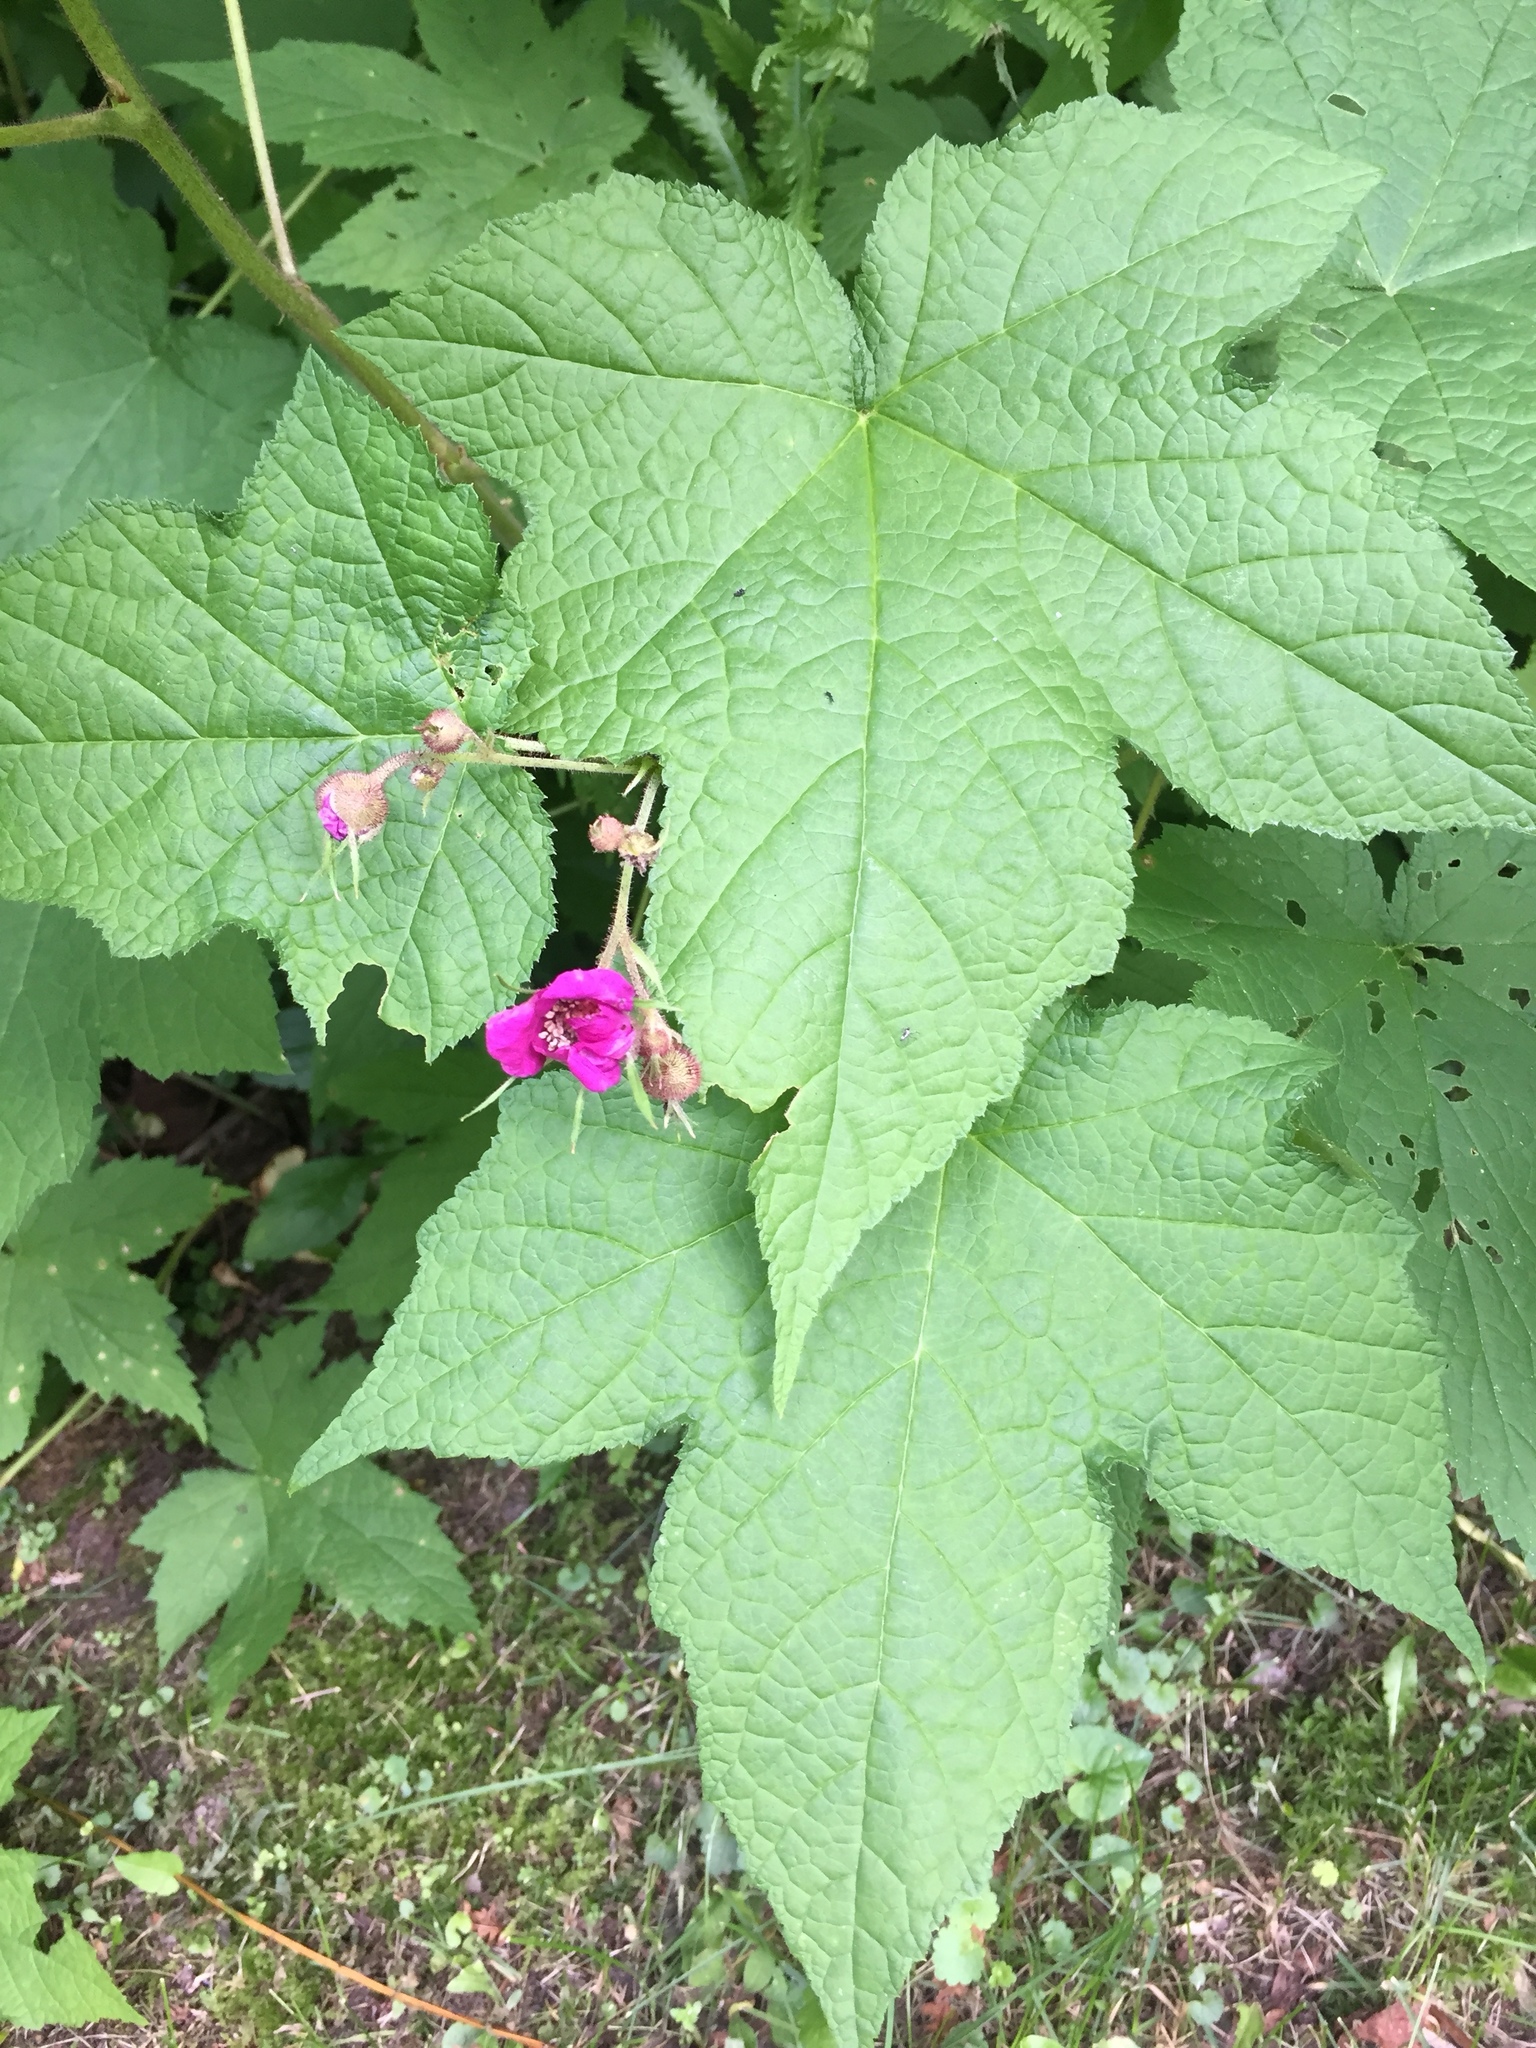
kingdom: Plantae
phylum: Tracheophyta
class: Magnoliopsida
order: Rosales
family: Rosaceae
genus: Rubus
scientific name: Rubus odoratus
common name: Purple-flowered raspberry
